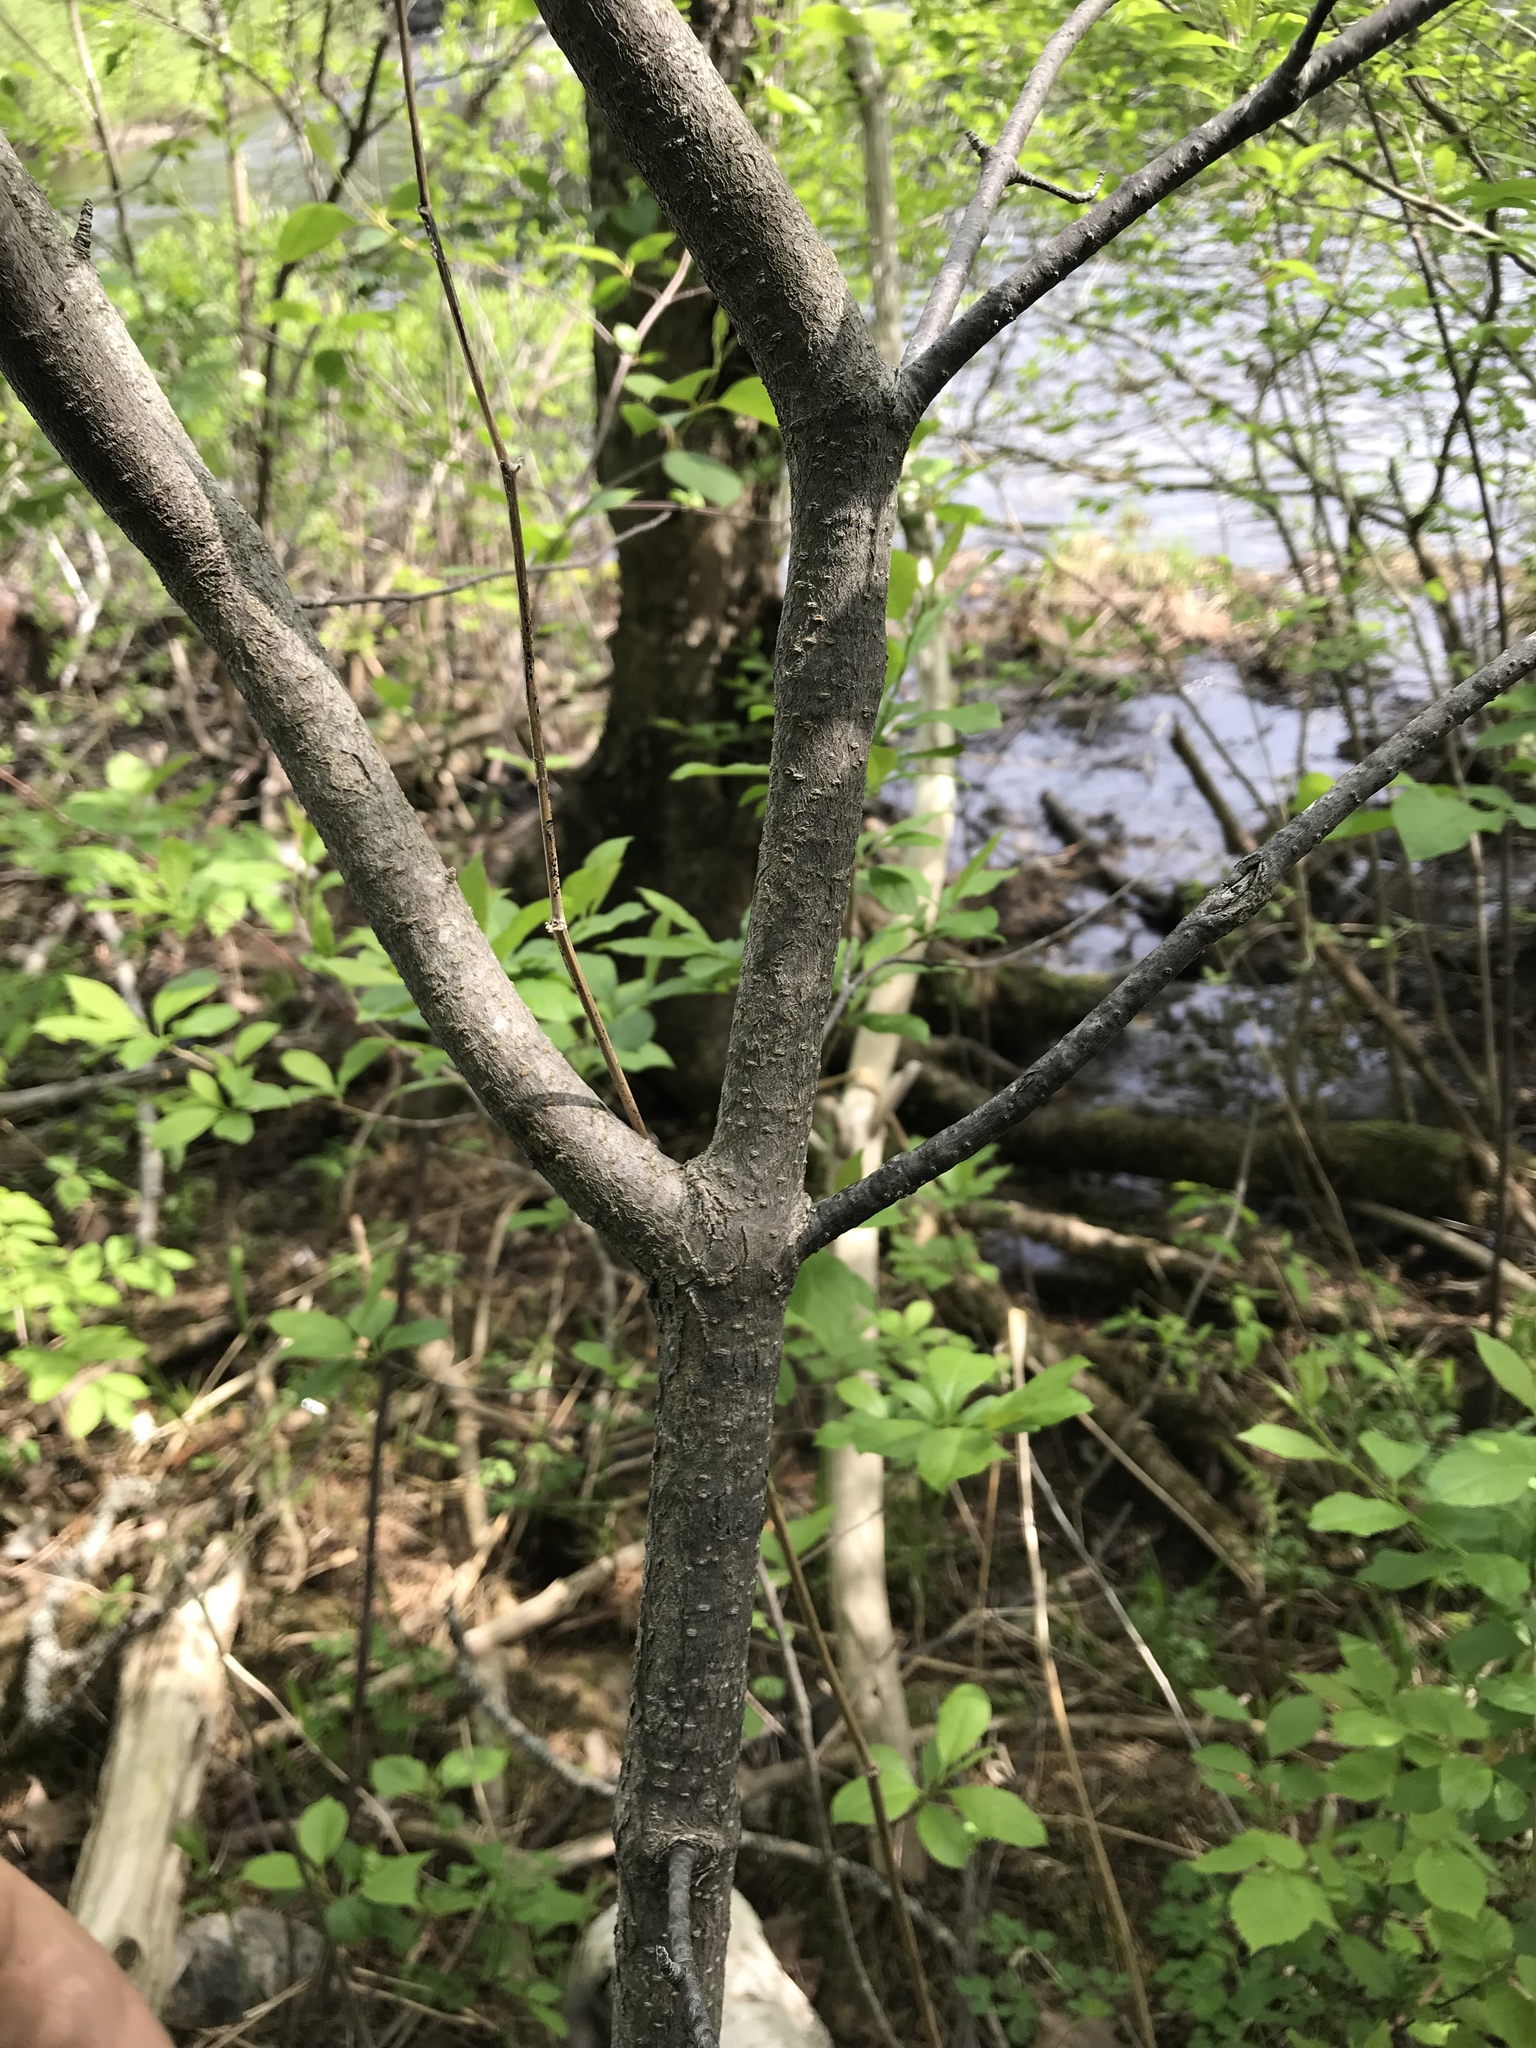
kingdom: Plantae
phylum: Tracheophyta
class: Magnoliopsida
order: Dipsacales
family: Viburnaceae
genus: Viburnum
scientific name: Viburnum lentago
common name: Black haw
